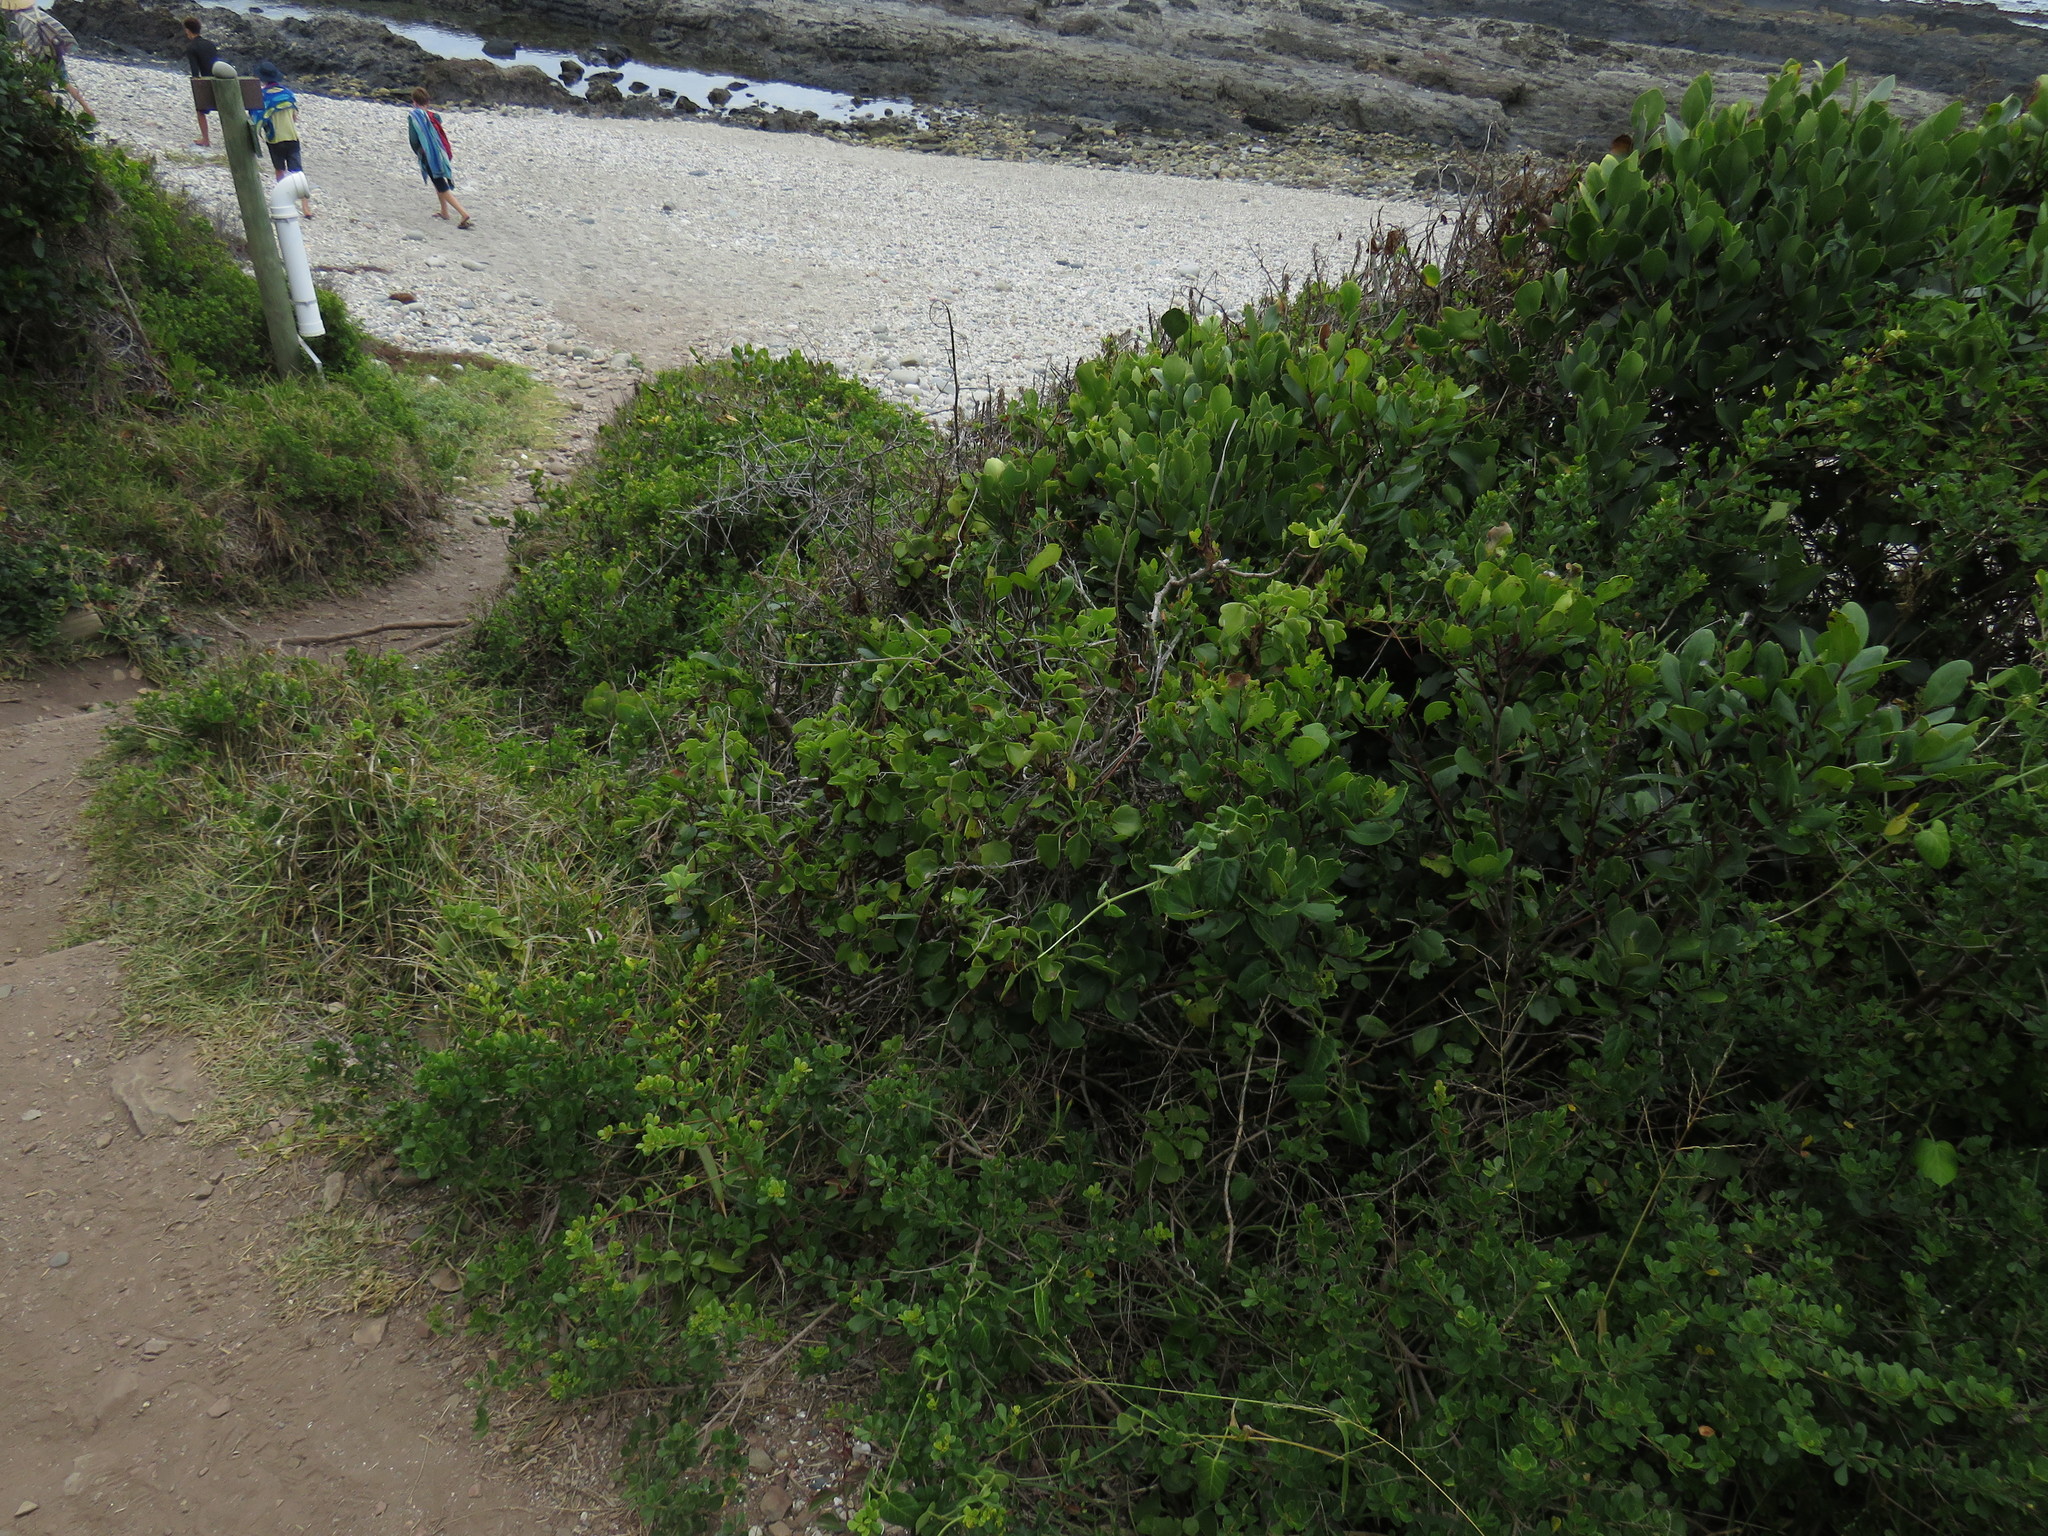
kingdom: Plantae
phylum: Tracheophyta
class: Magnoliopsida
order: Sapindales
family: Anacardiaceae
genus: Searsia
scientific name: Searsia crenata
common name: Crowberry
